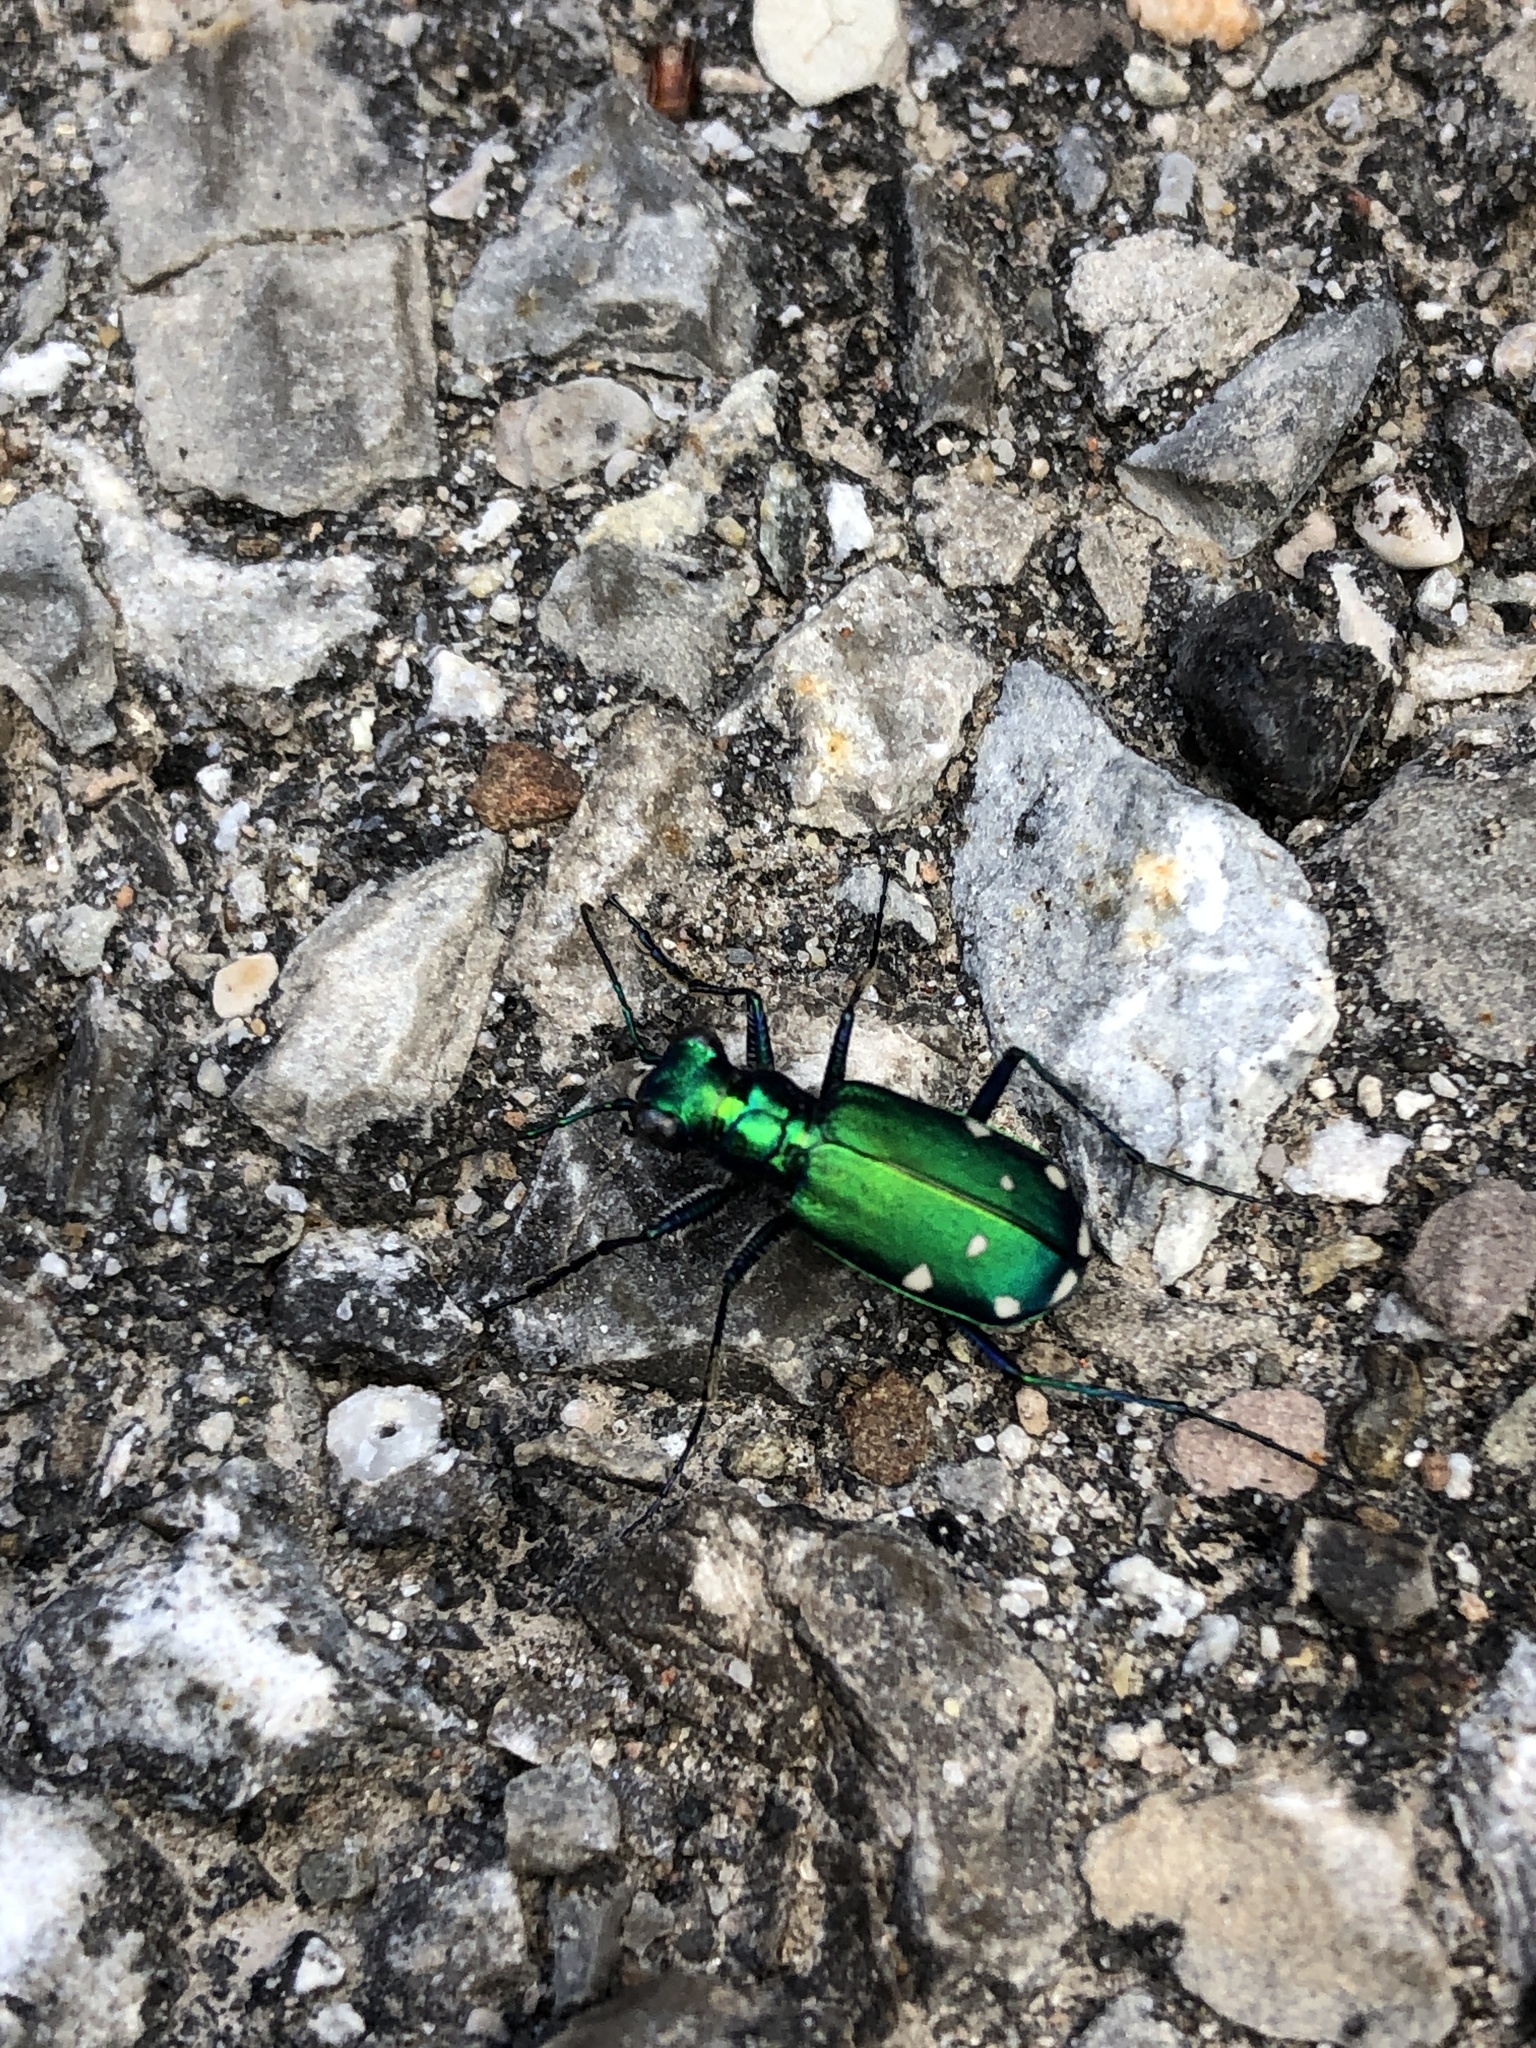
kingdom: Animalia
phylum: Arthropoda
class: Insecta
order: Coleoptera
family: Carabidae
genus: Cicindela
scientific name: Cicindela sexguttata
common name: Six-spotted tiger beetle
